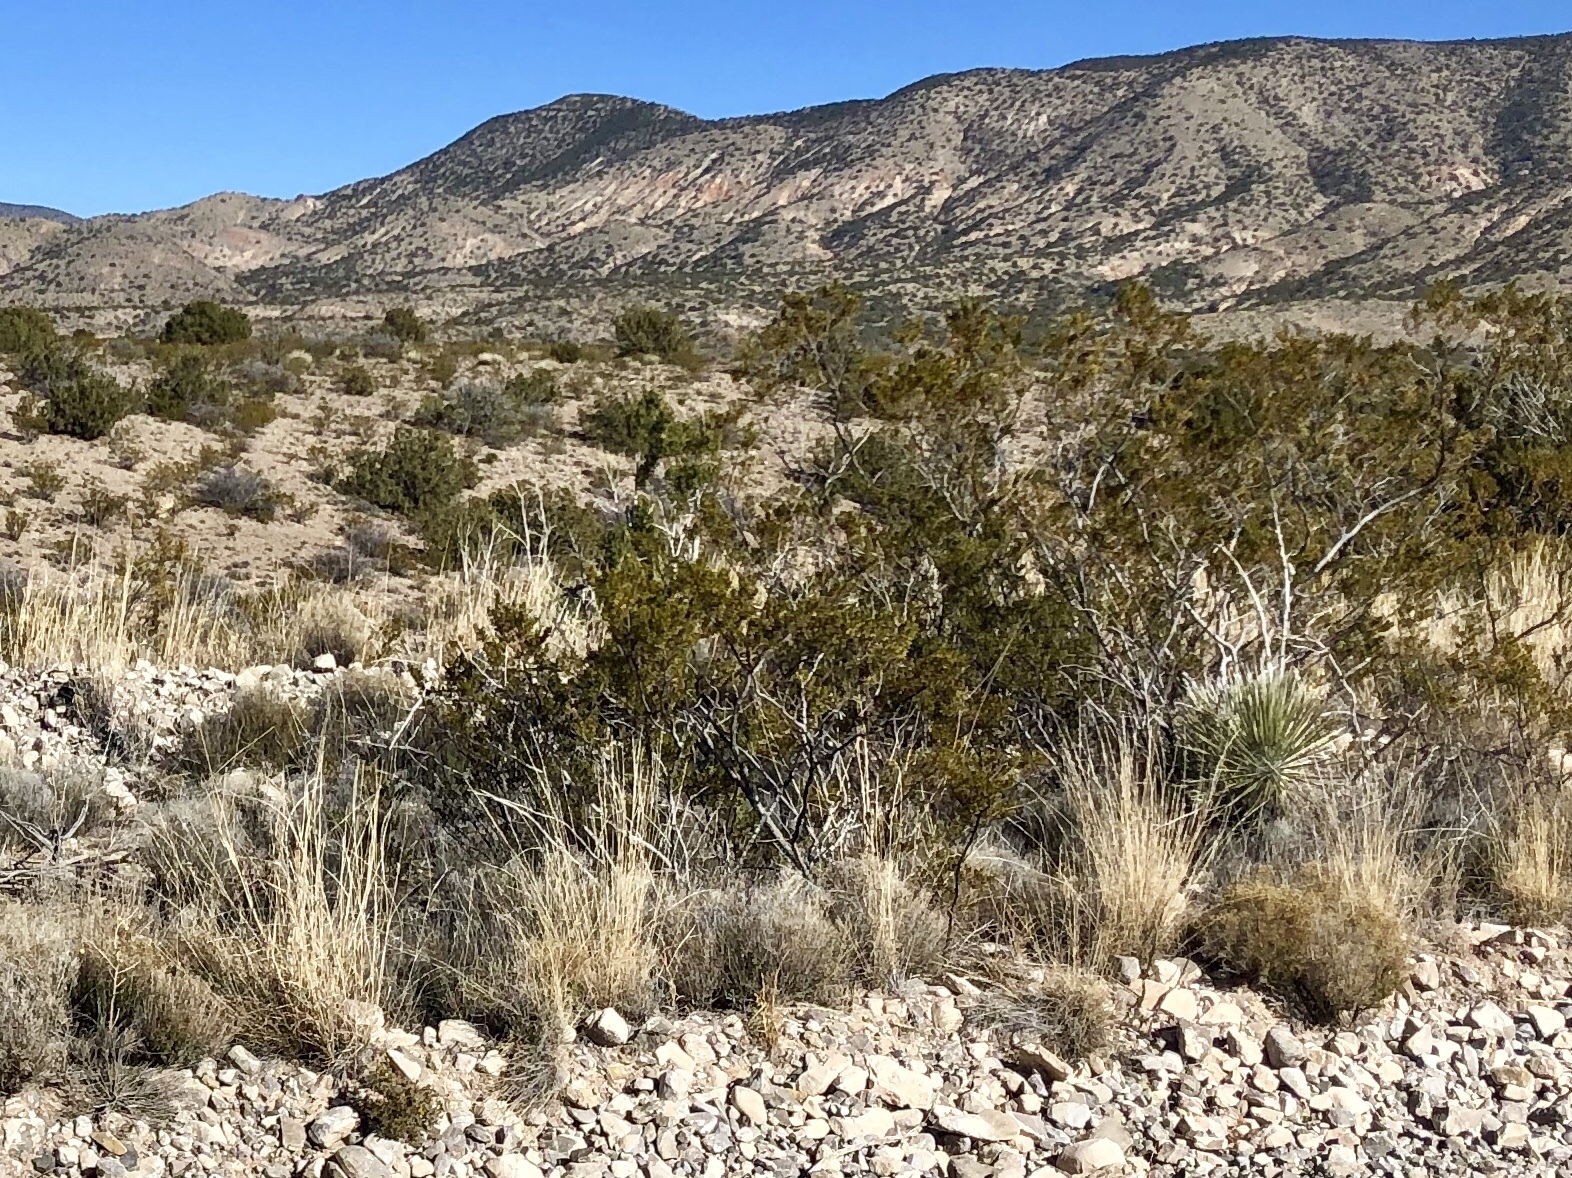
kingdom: Plantae
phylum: Tracheophyta
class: Magnoliopsida
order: Zygophyllales
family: Zygophyllaceae
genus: Larrea
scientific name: Larrea tridentata
